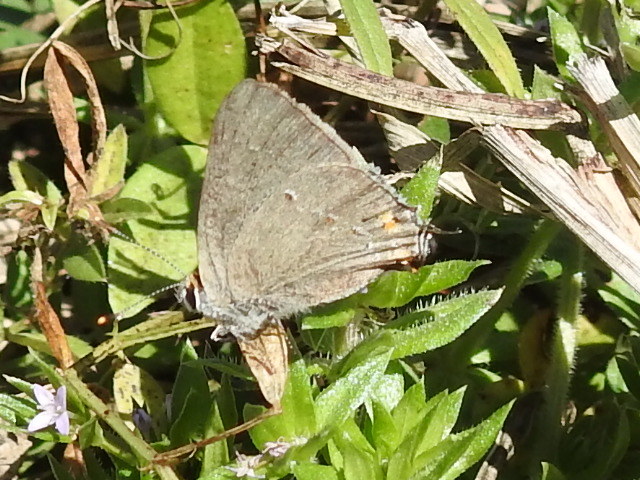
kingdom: Animalia
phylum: Arthropoda
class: Insecta
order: Lepidoptera
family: Lycaenidae
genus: Strymon
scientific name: Strymon melinus
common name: Gray hairstreak
